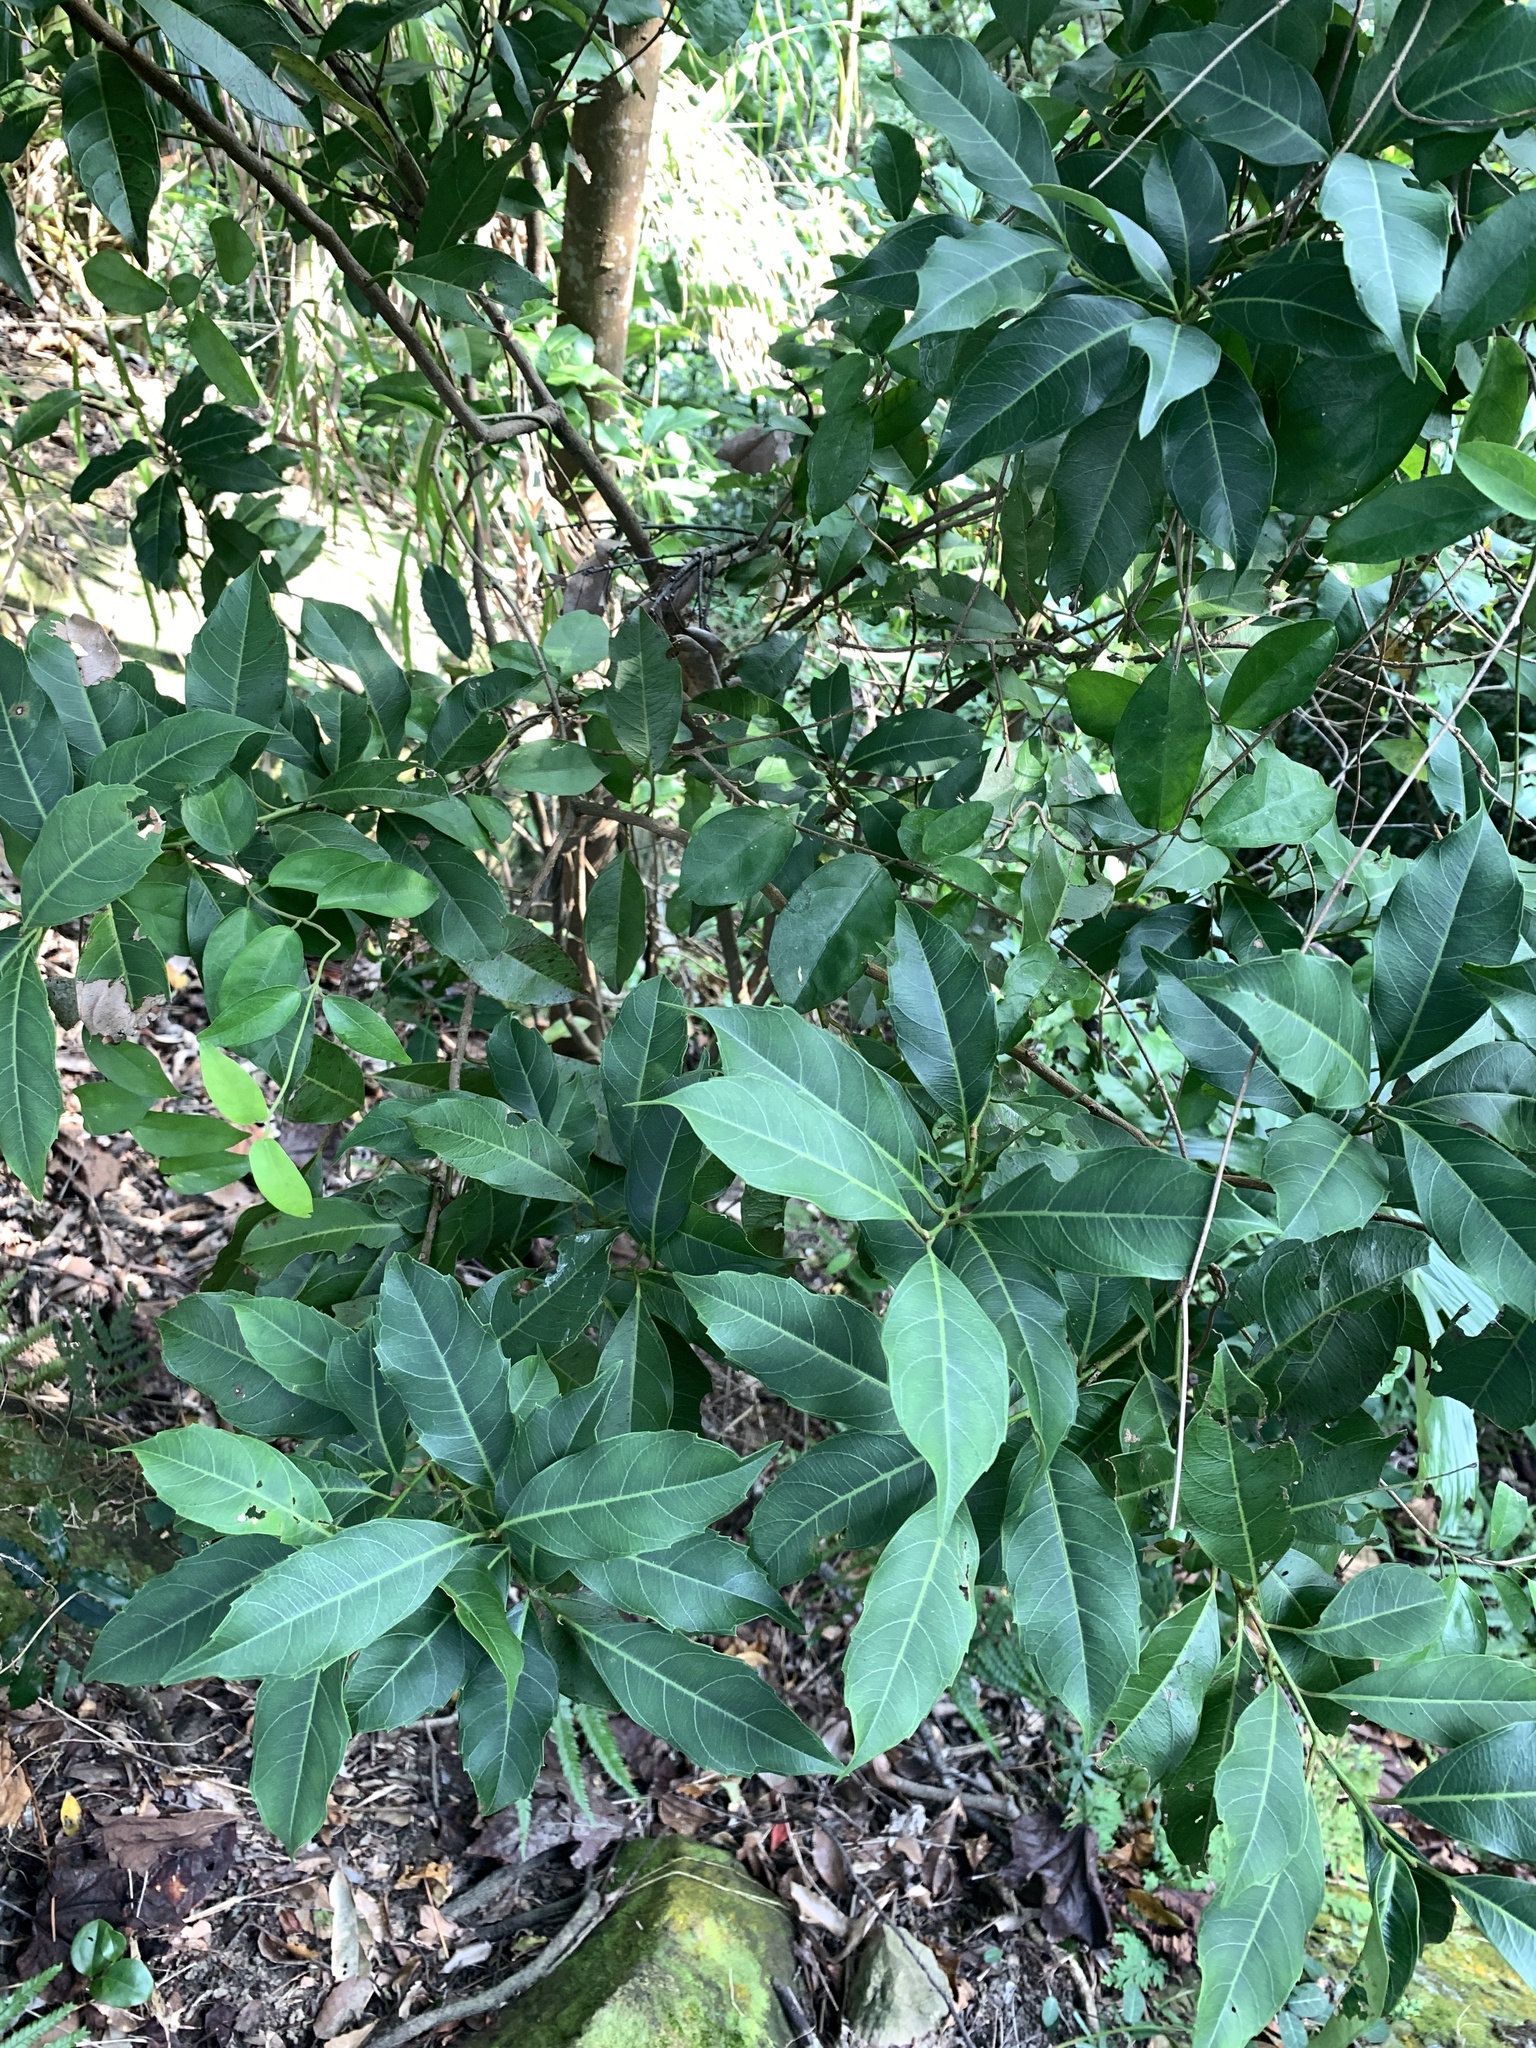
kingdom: Plantae
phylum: Tracheophyta
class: Magnoliopsida
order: Saxifragales
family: Iteaceae
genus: Itea
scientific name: Itea oldhamii
